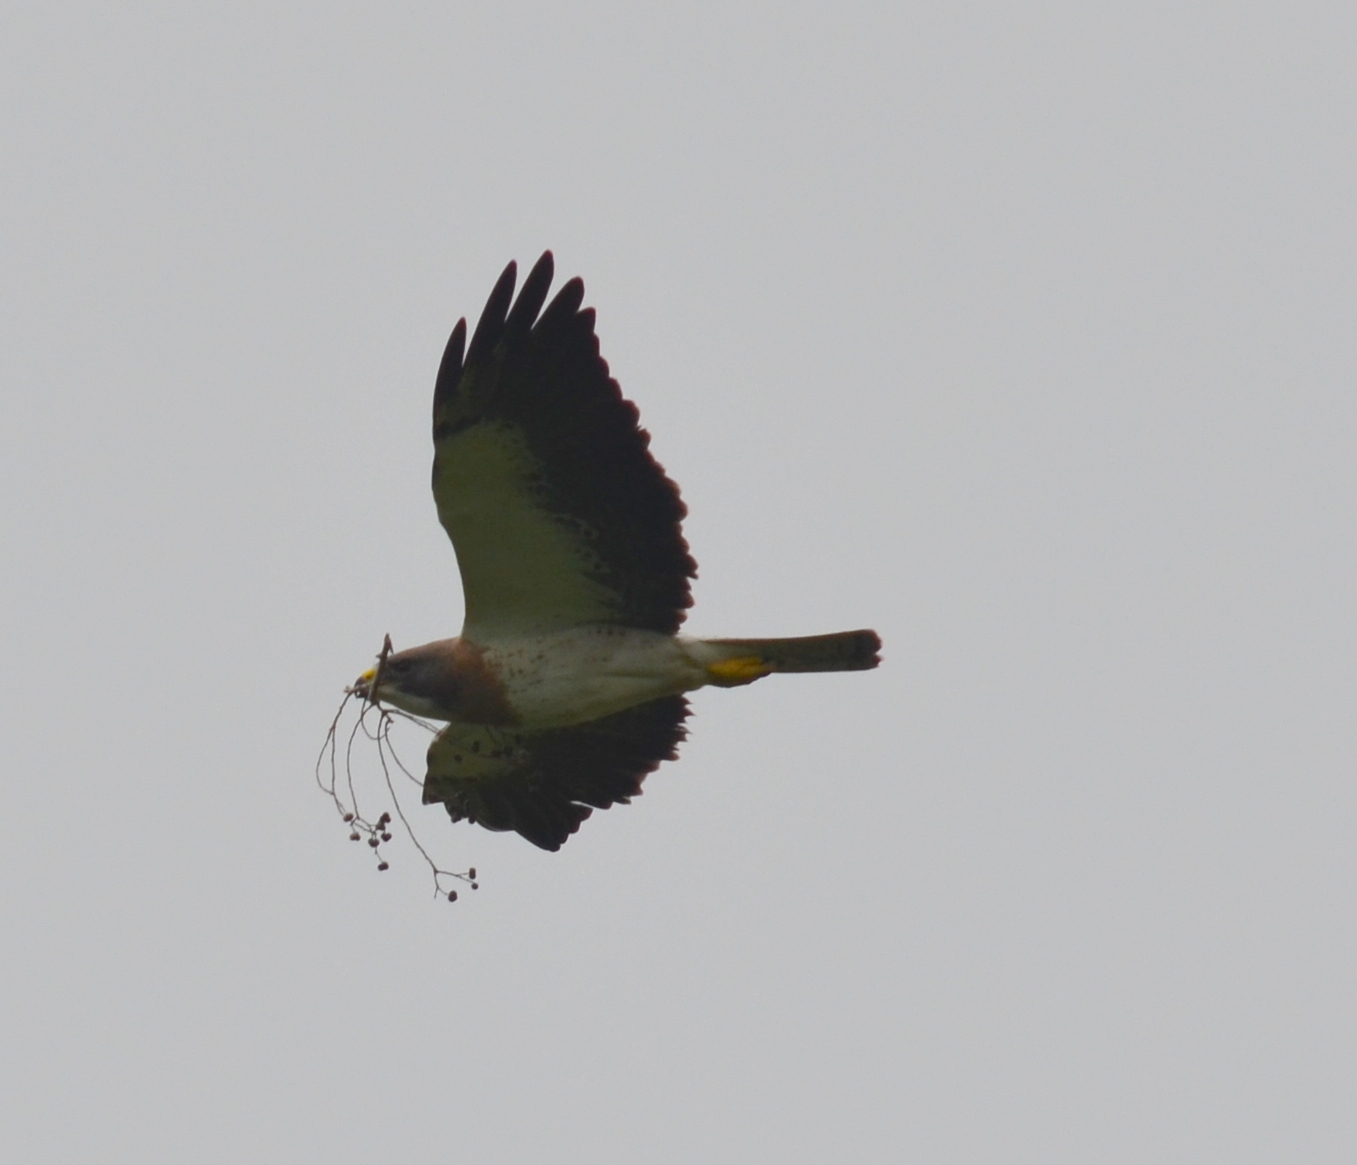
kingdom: Animalia
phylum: Chordata
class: Aves
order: Accipitriformes
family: Accipitridae
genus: Buteo
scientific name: Buteo swainsoni
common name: Swainson's hawk
